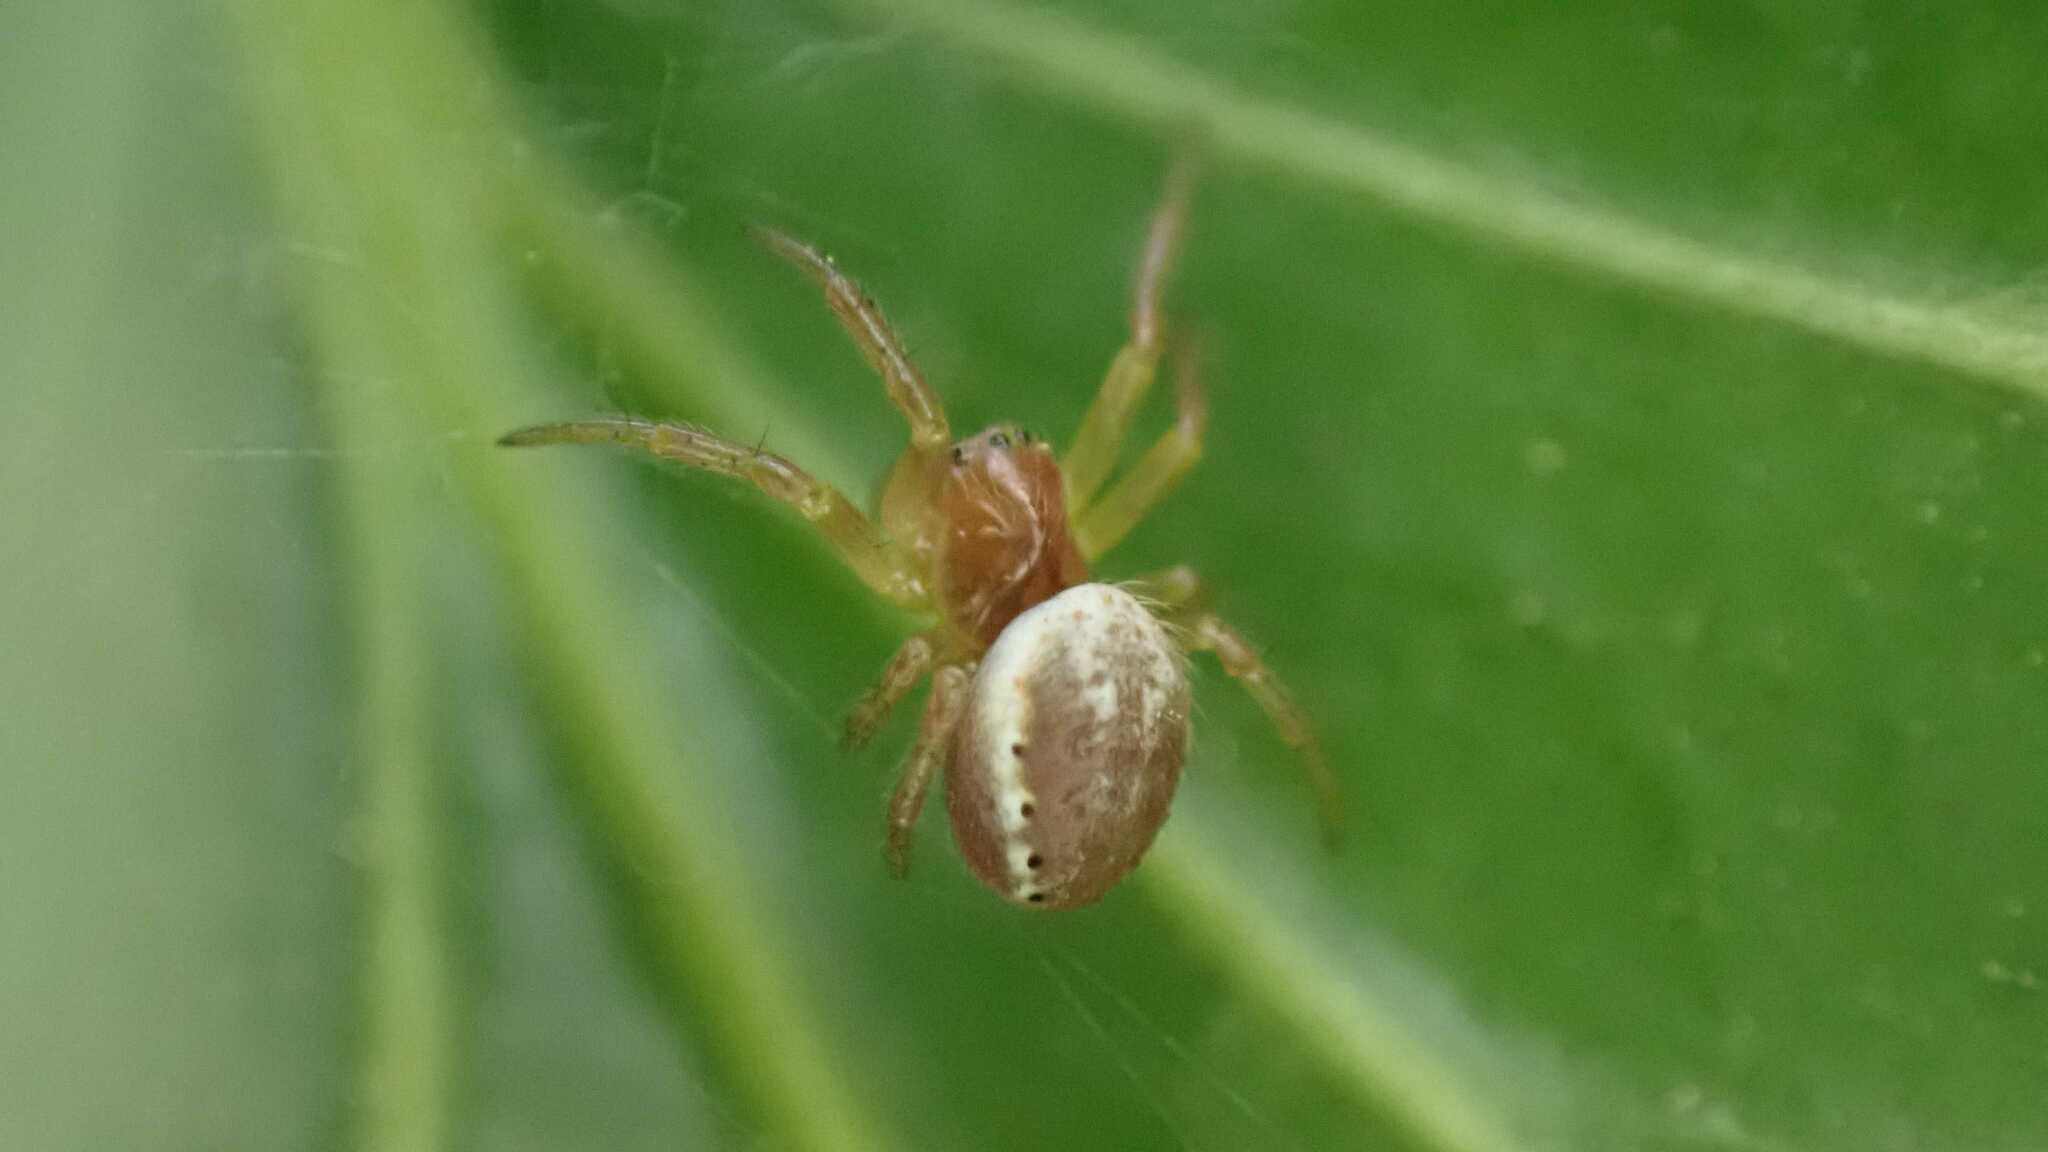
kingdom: Animalia
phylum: Arthropoda
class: Arachnida
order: Araneae
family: Araneidae
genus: Araniella
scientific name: Araniella
